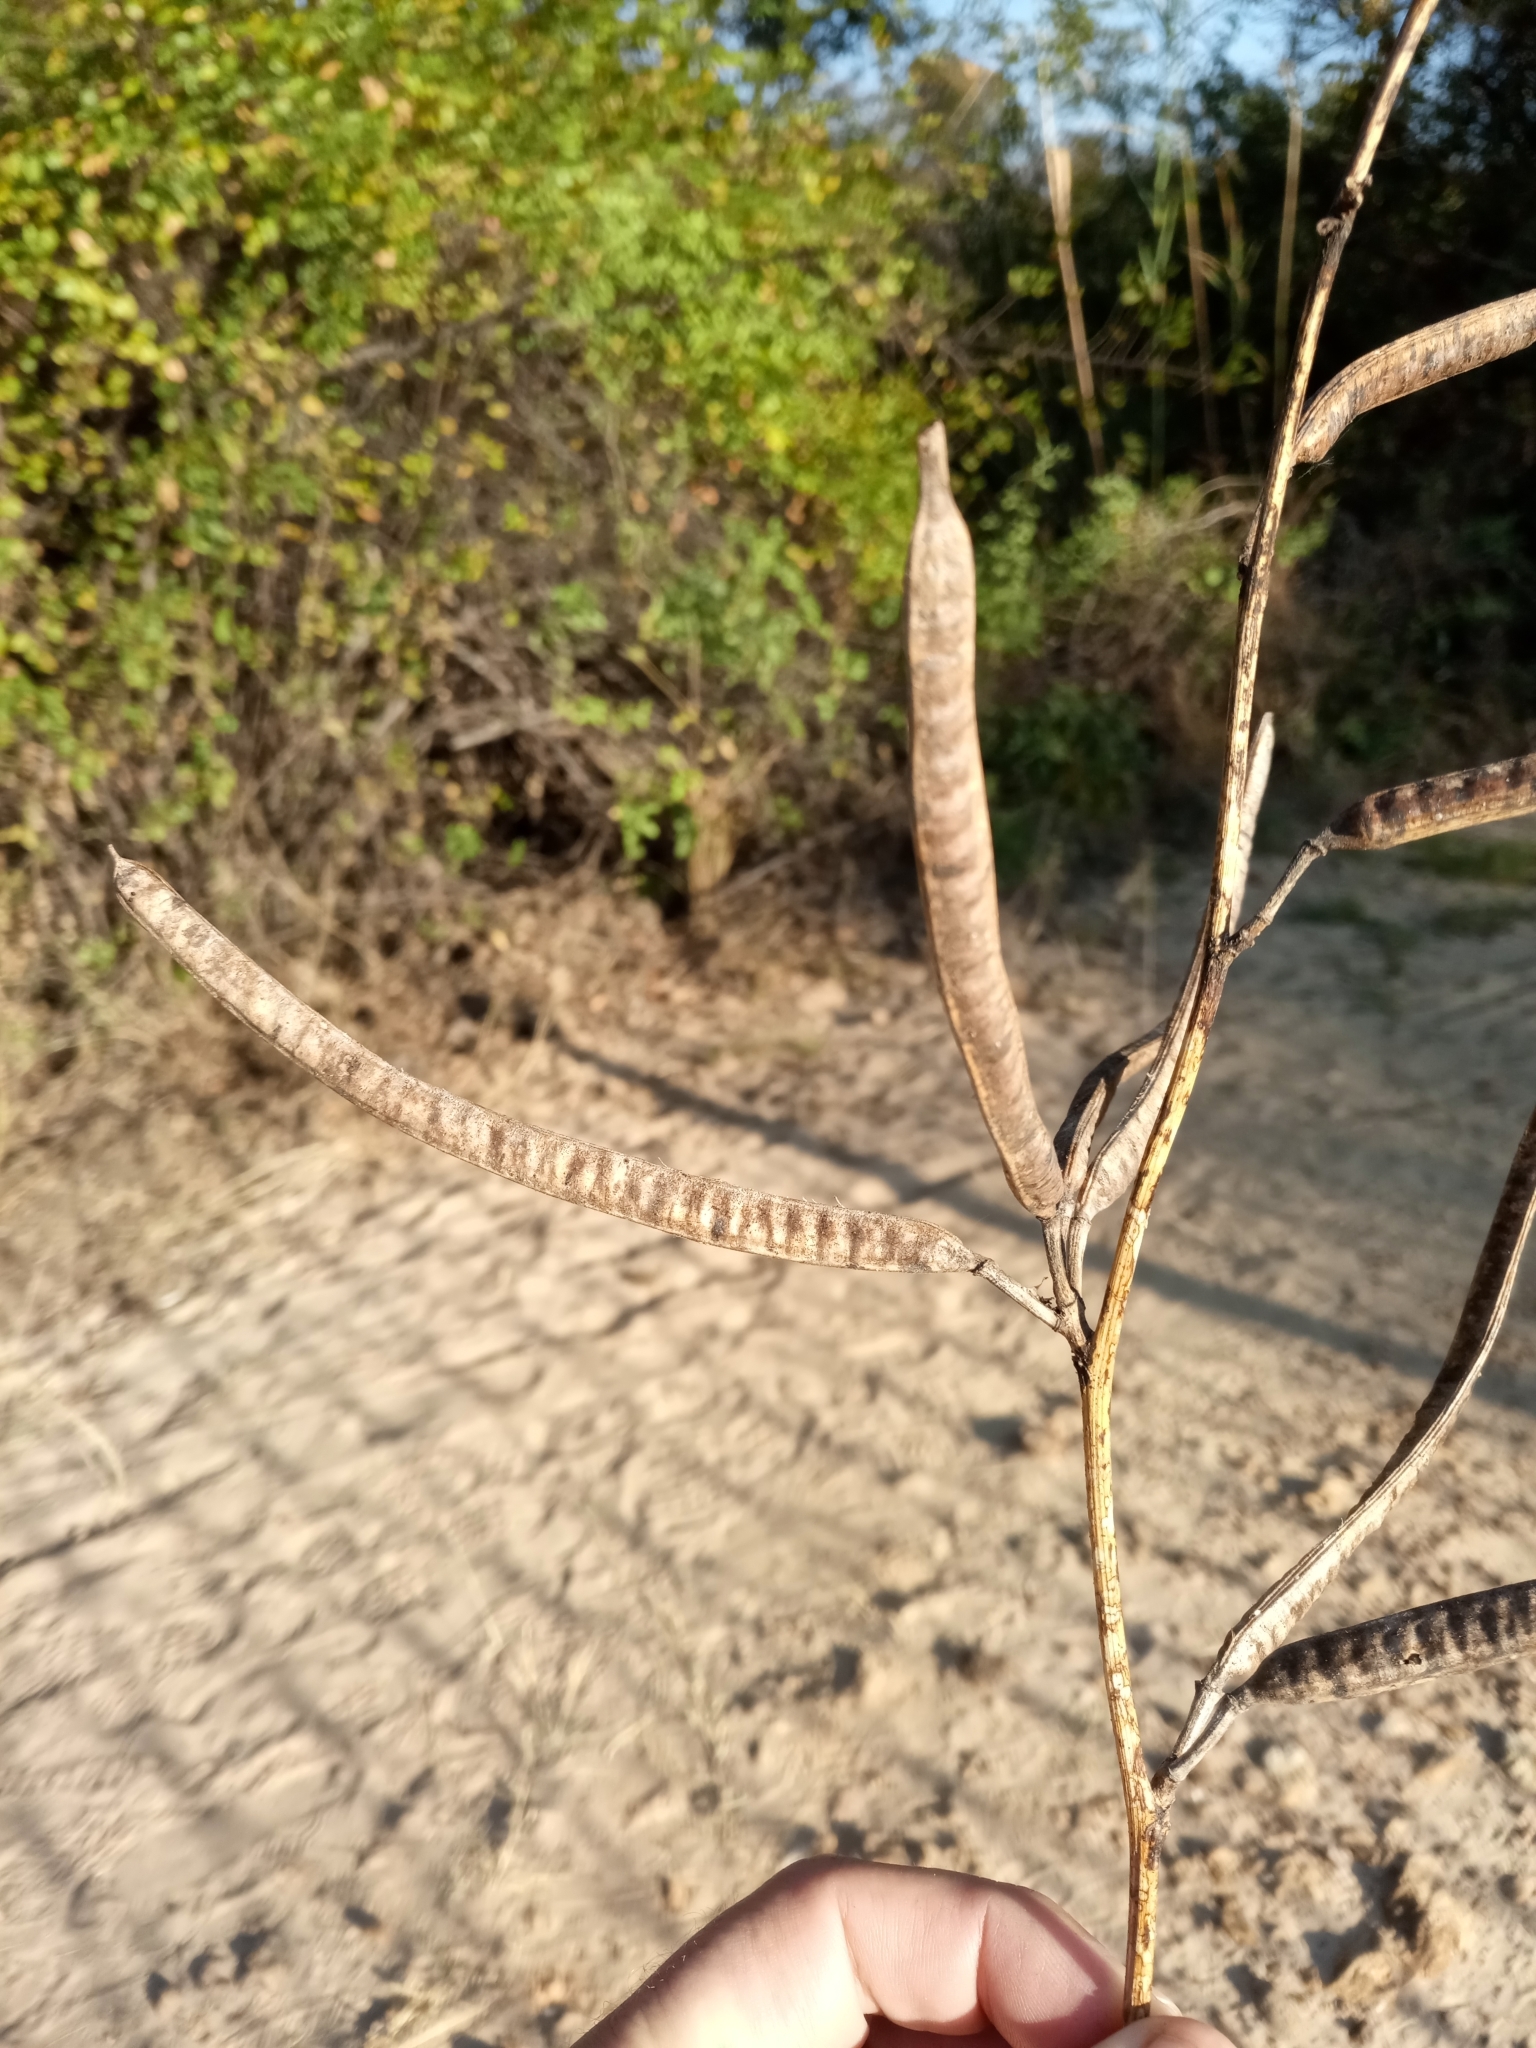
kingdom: Plantae
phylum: Tracheophyta
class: Magnoliopsida
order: Fabales
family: Fabaceae
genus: Senna
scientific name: Senna occidentalis
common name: Septicweed
